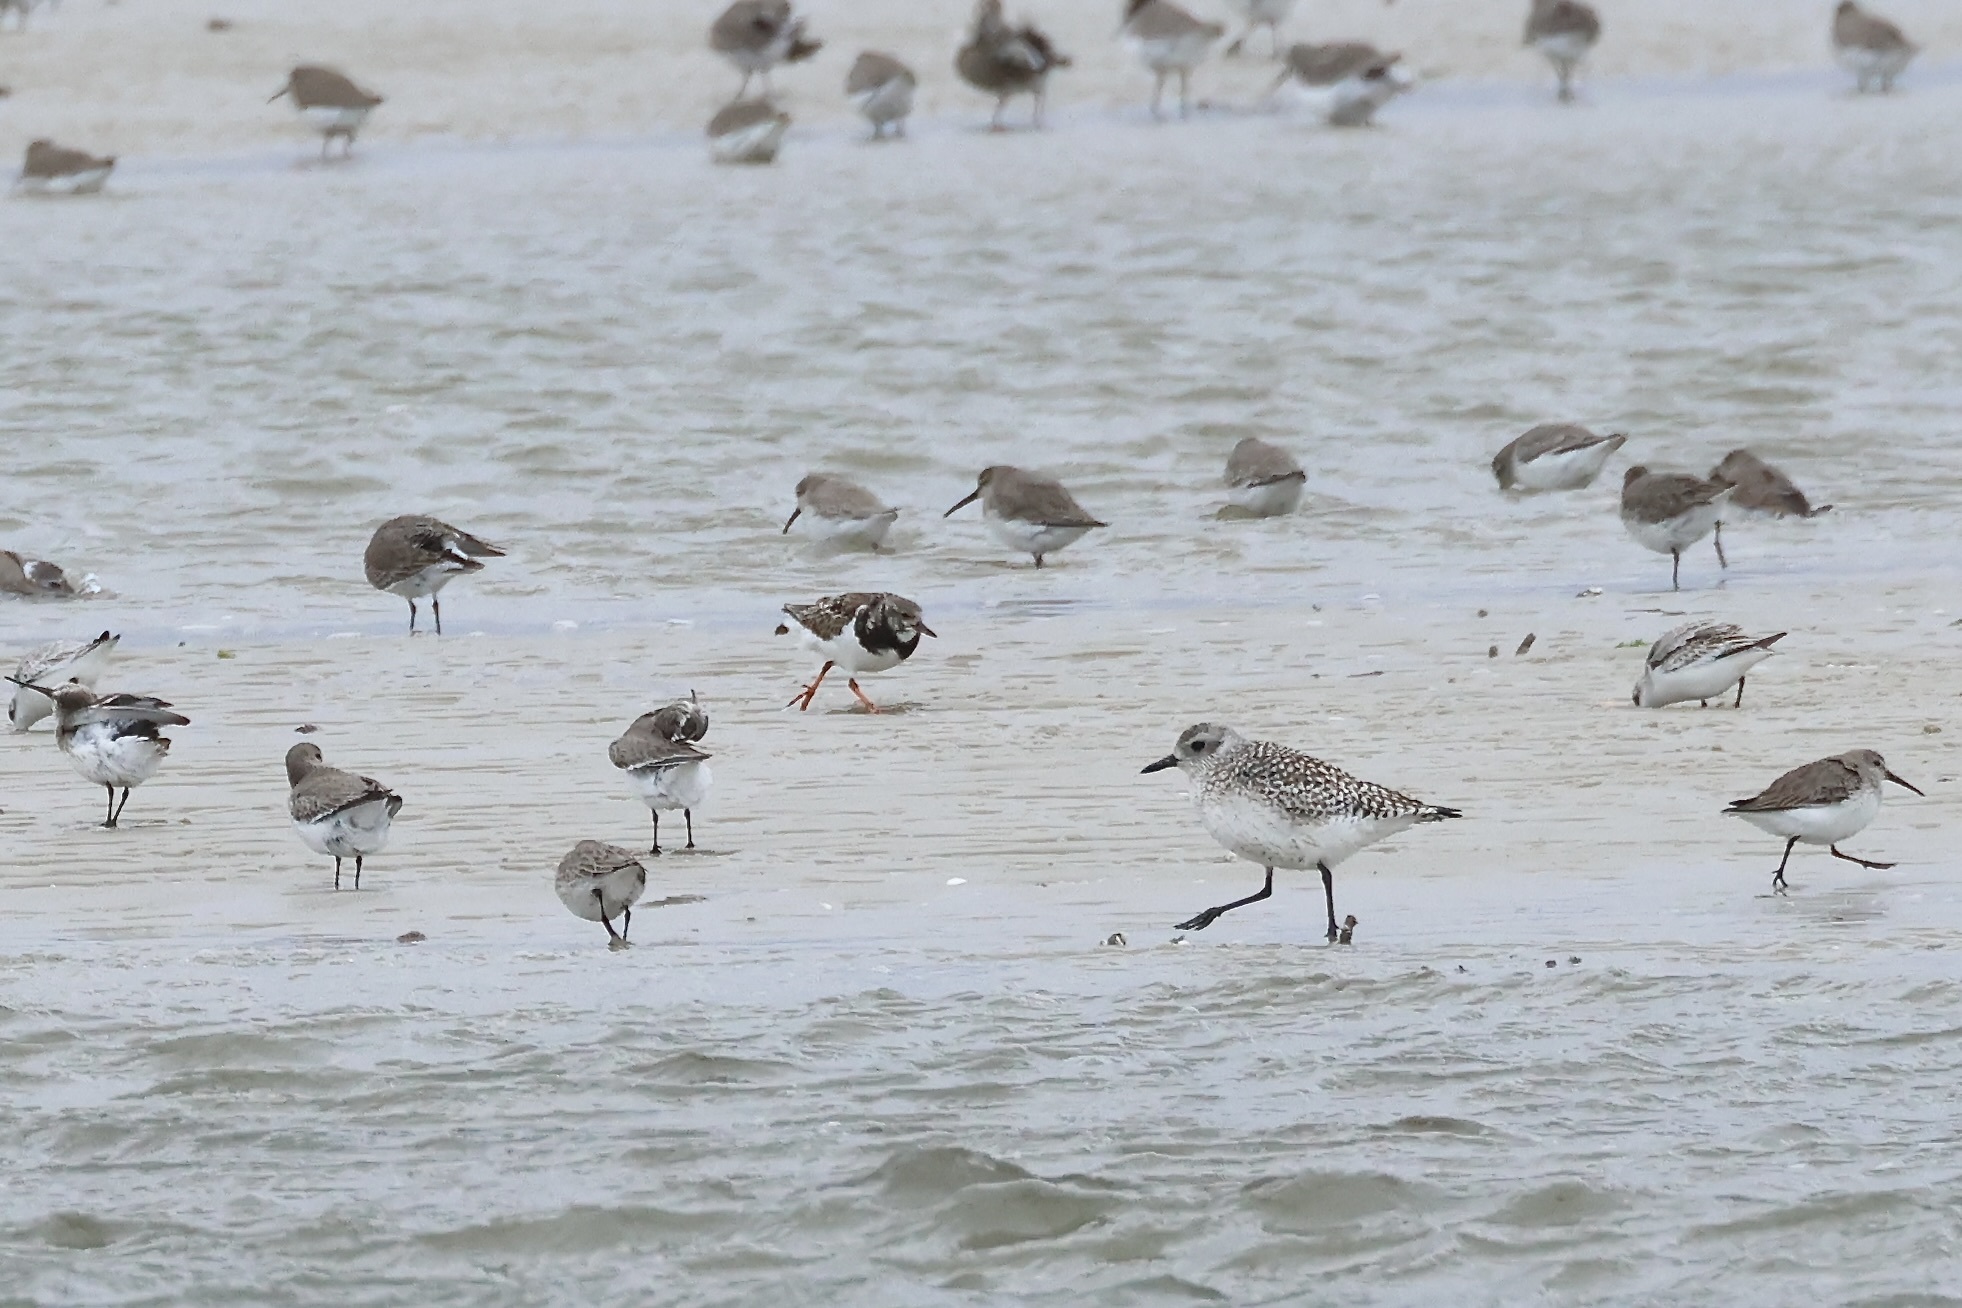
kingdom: Animalia
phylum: Chordata
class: Aves
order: Charadriiformes
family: Scolopacidae
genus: Arenaria
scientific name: Arenaria interpres
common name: Ruddy turnstone
